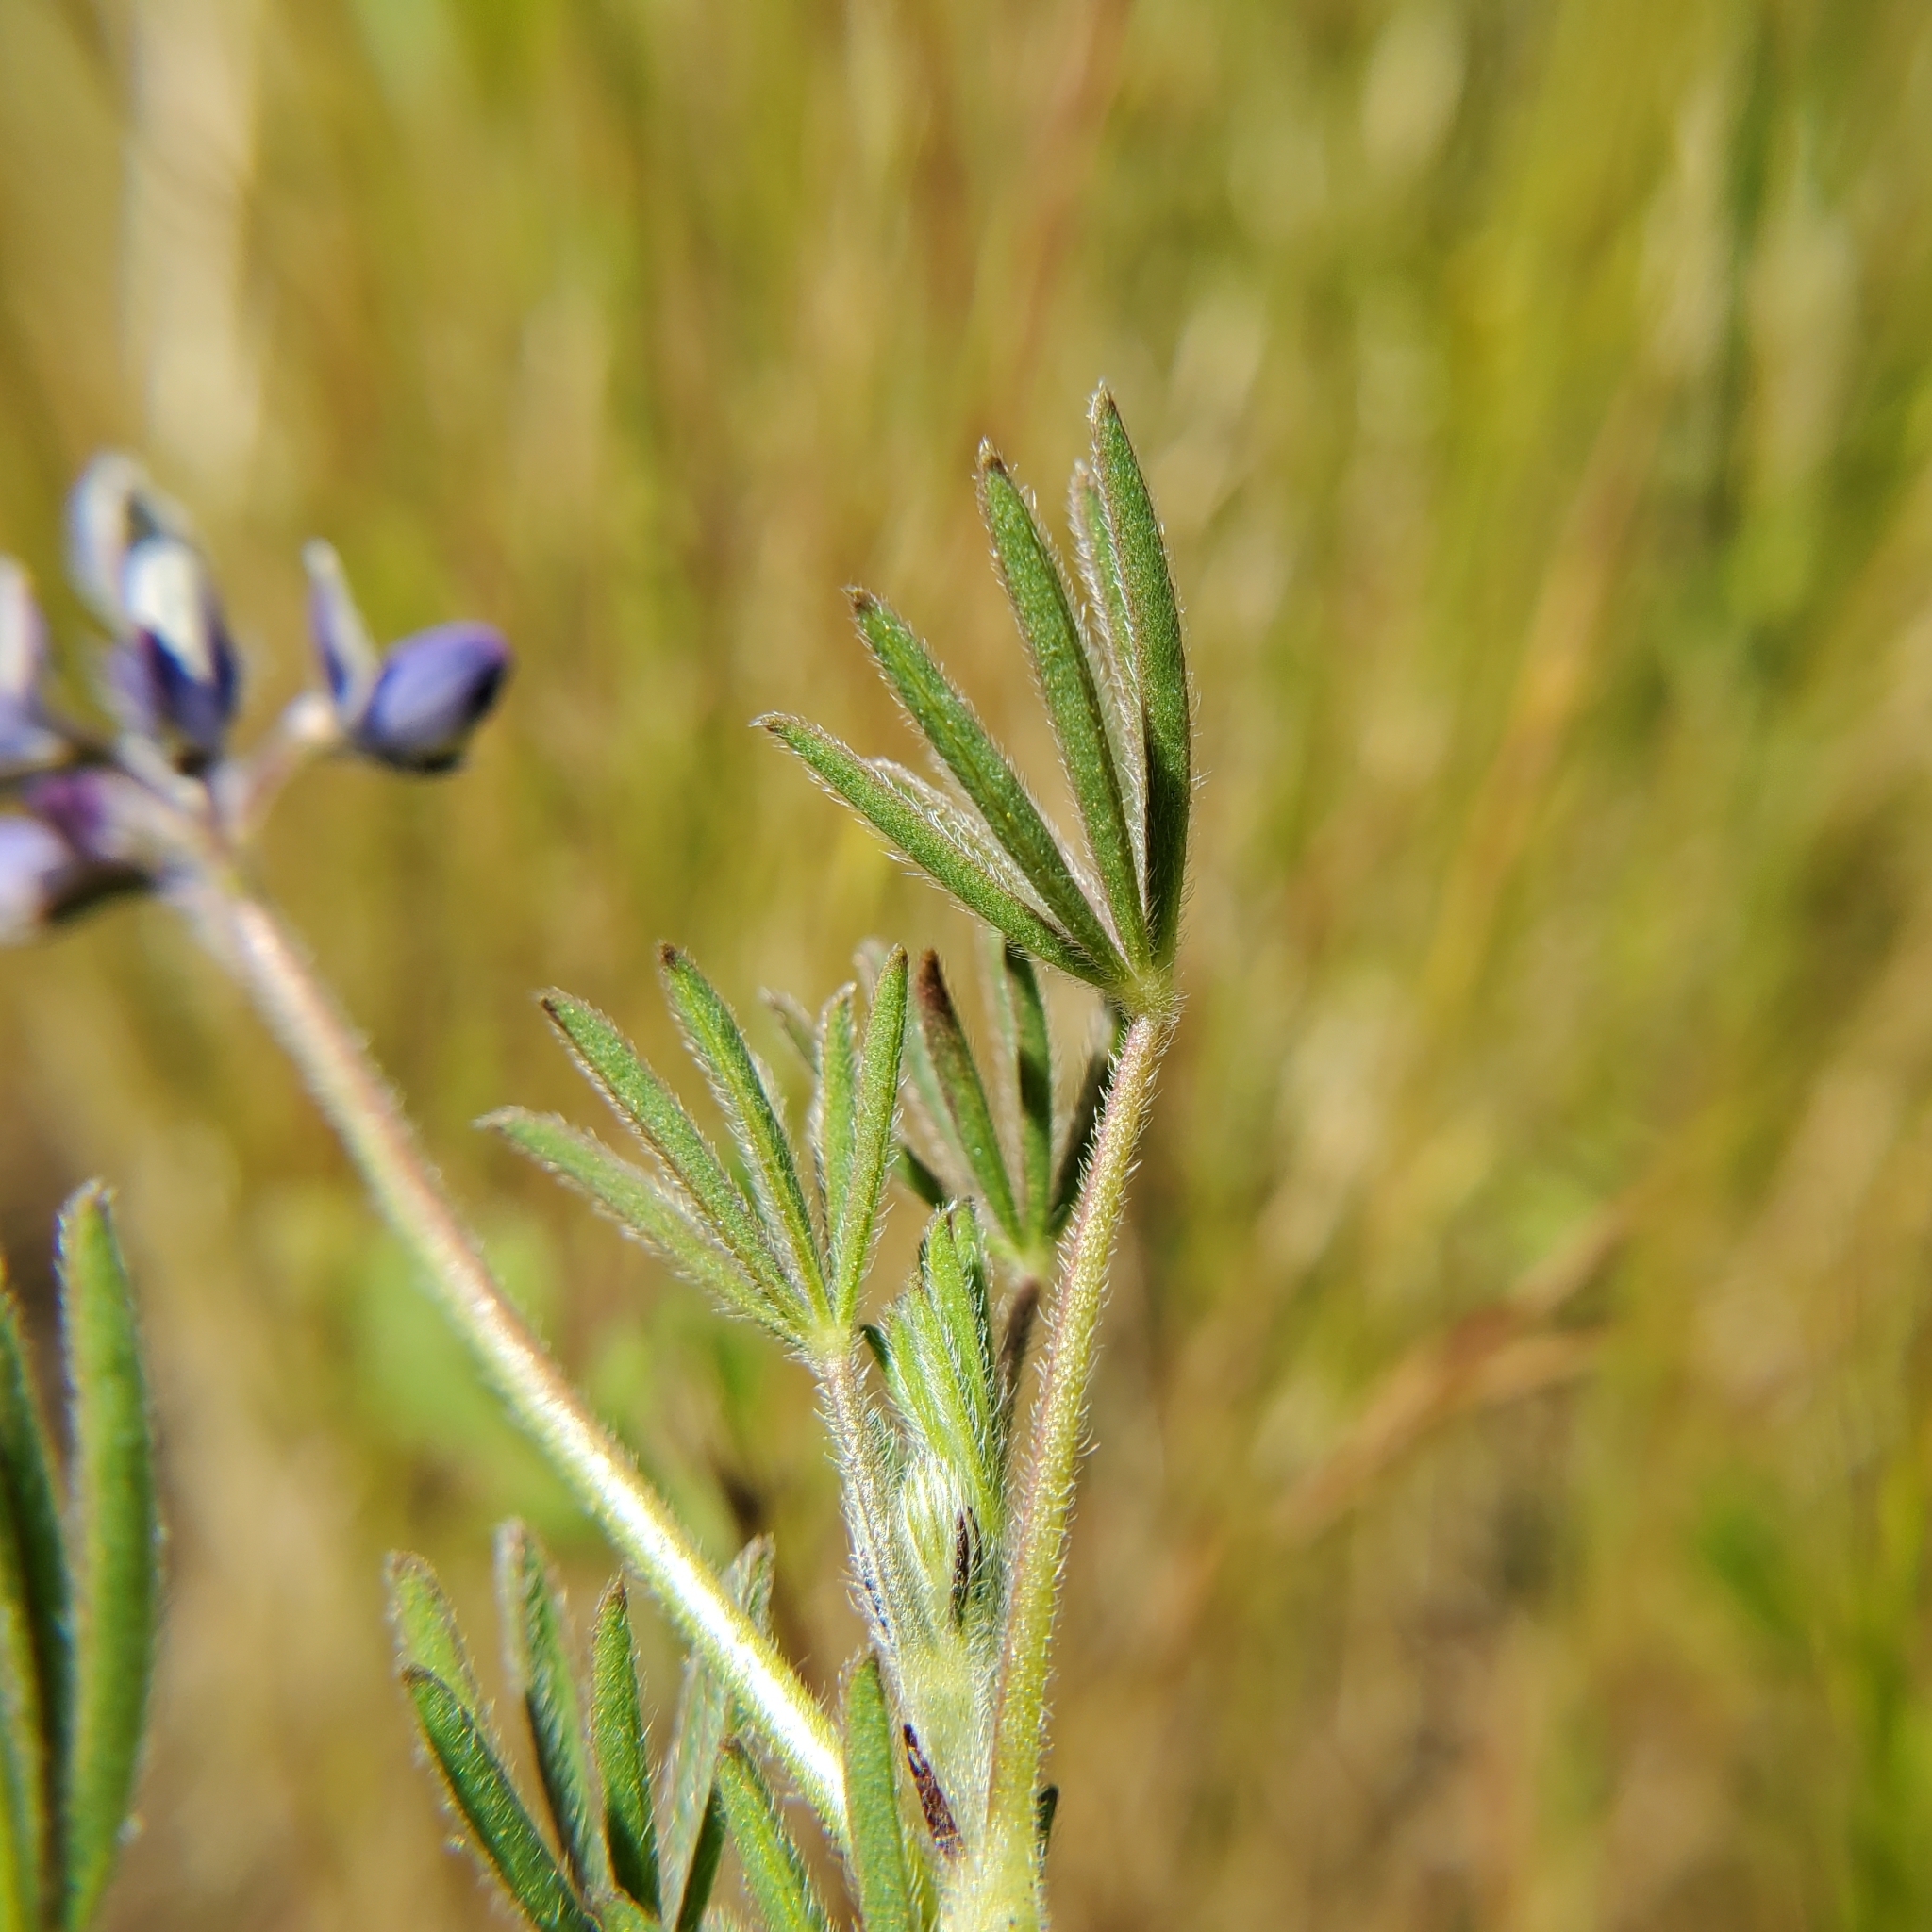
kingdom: Plantae
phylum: Tracheophyta
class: Magnoliopsida
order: Fabales
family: Fabaceae
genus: Lupinus
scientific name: Lupinus bicolor
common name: Miniature lupine
